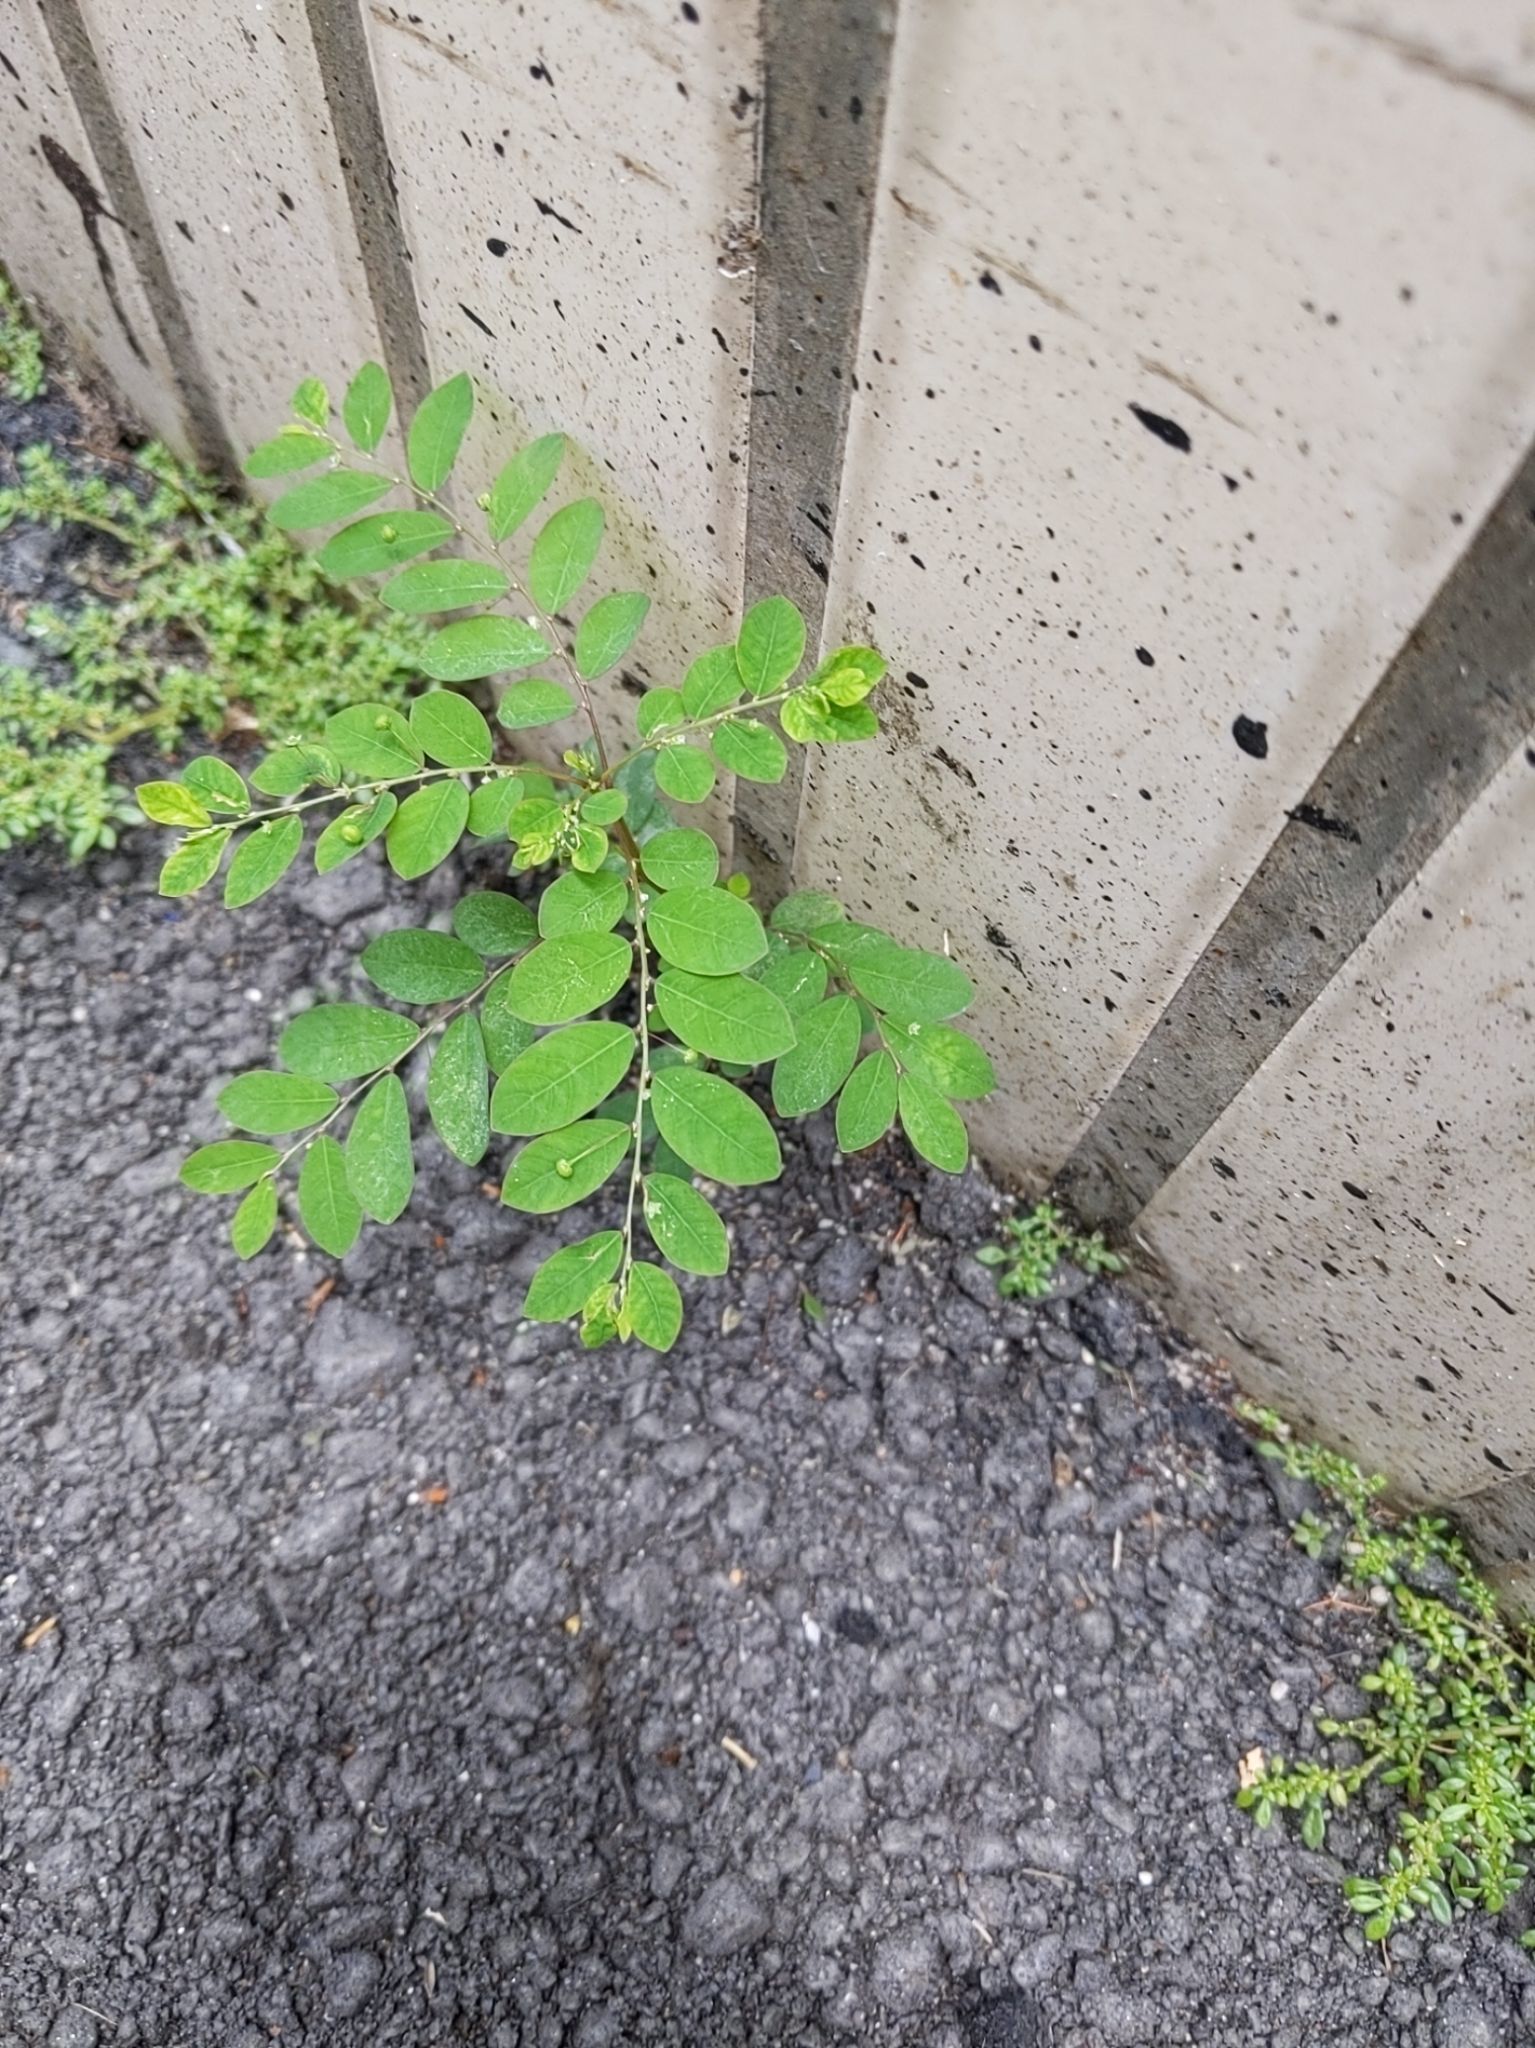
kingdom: Plantae
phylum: Tracheophyta
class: Magnoliopsida
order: Malpighiales
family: Phyllanthaceae
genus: Phyllanthus
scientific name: Phyllanthus tenellus
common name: Mascarene island leaf-flower
